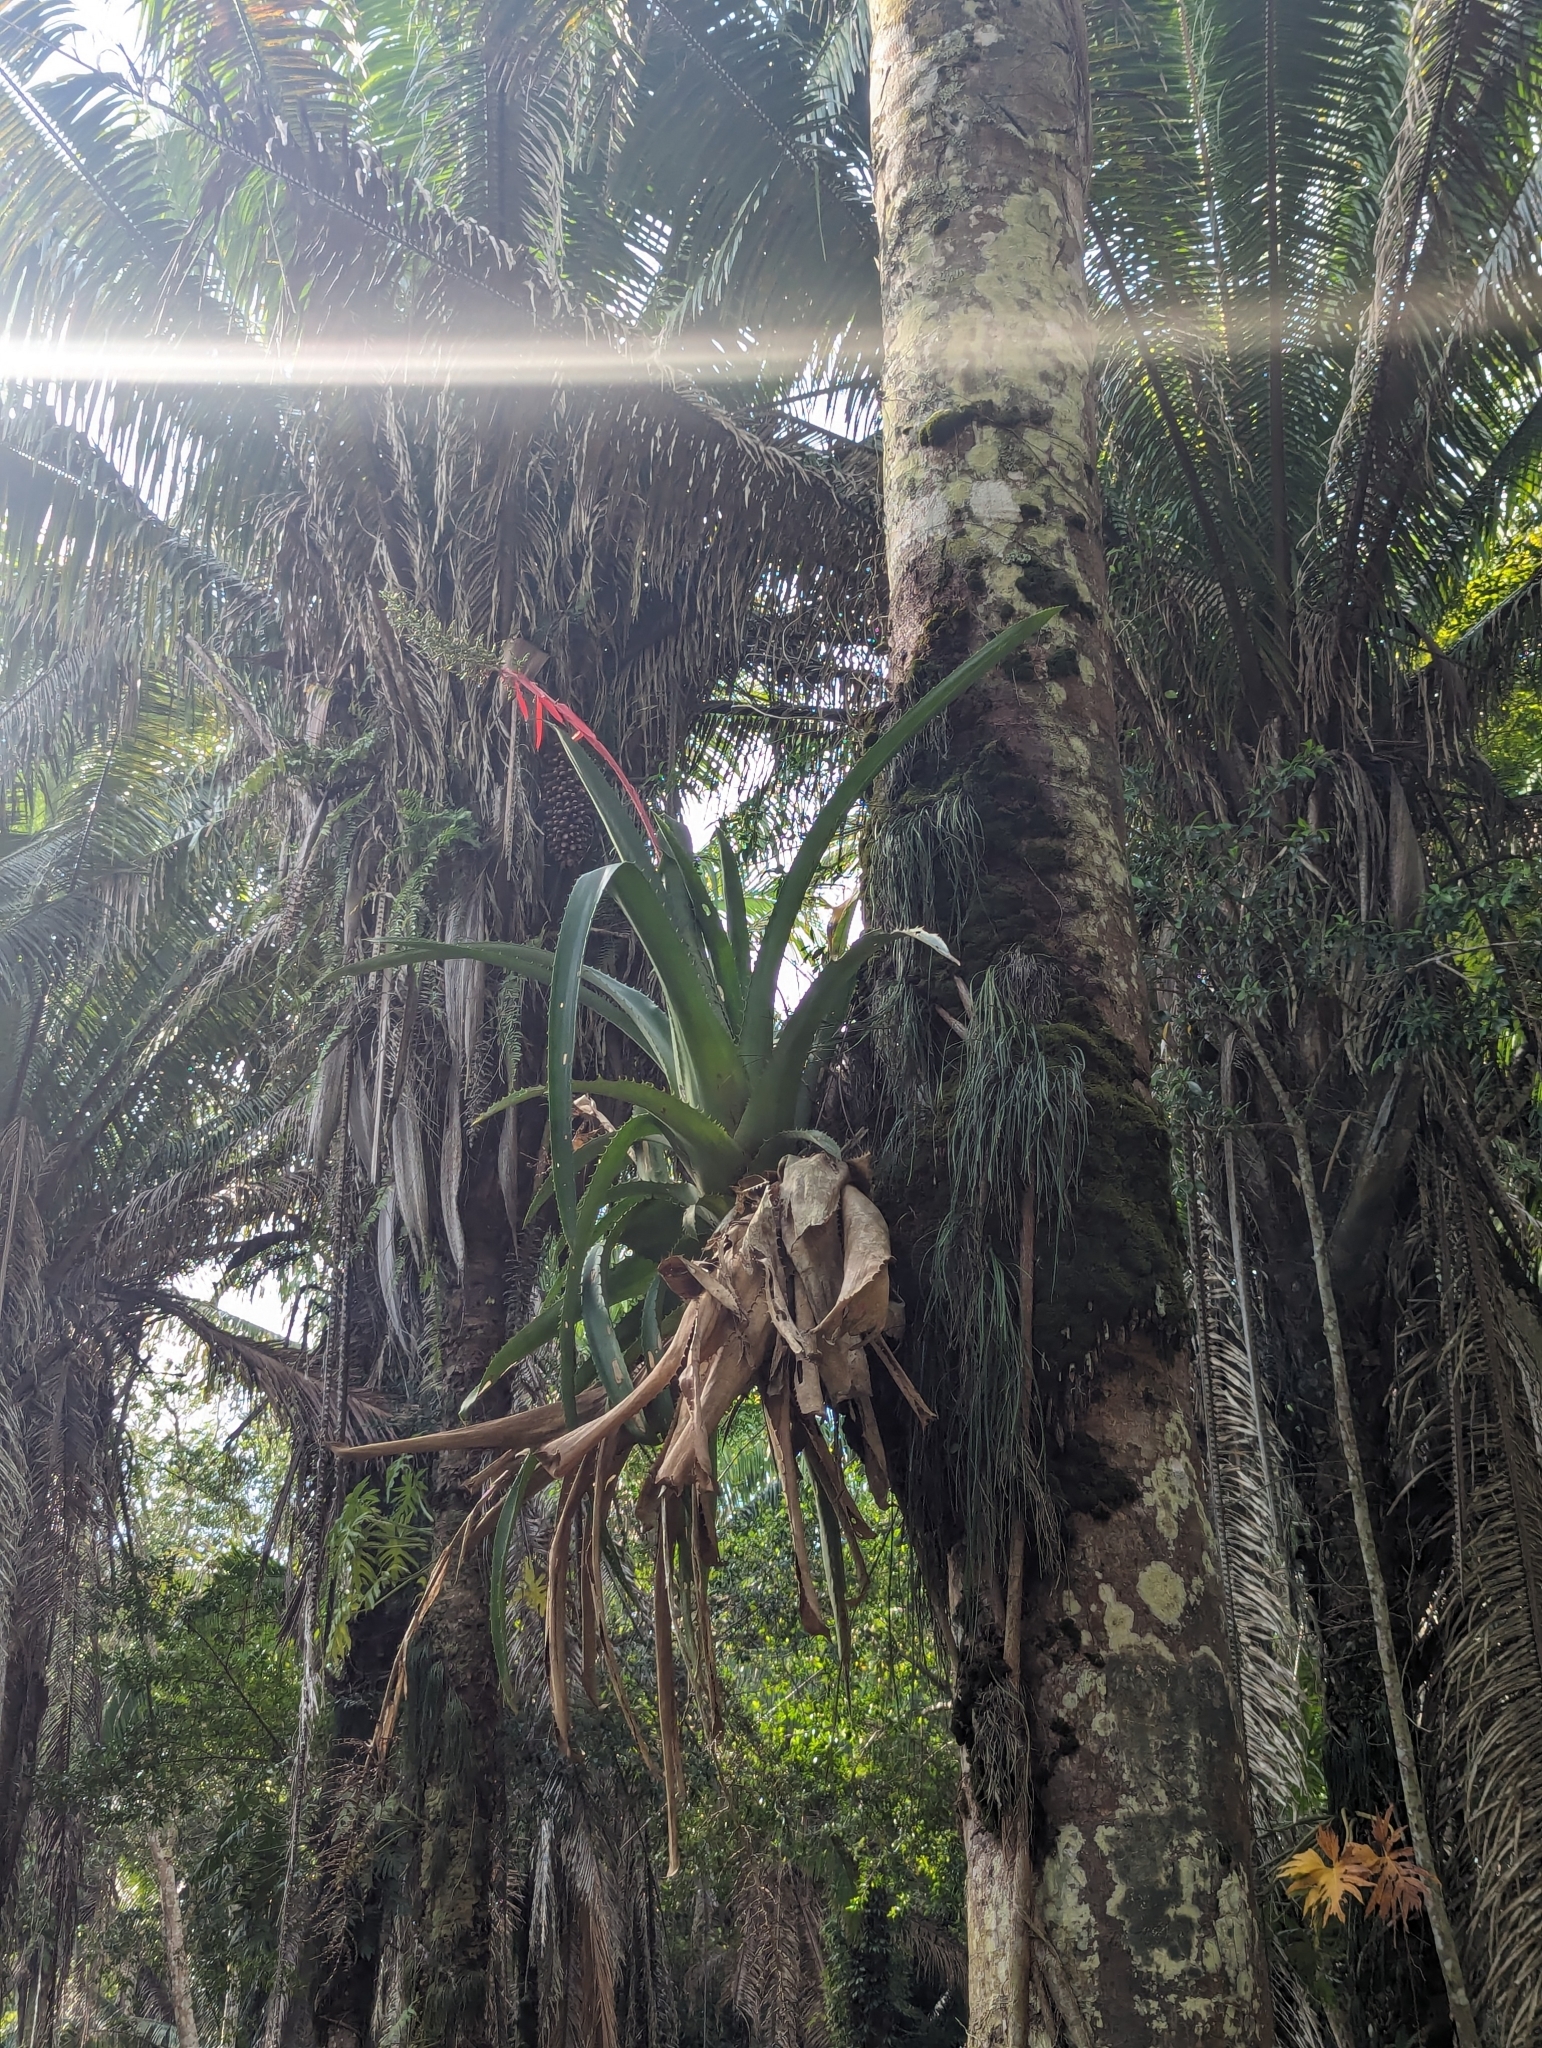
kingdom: Plantae
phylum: Tracheophyta
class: Liliopsida
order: Poales
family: Bromeliaceae
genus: Aechmea
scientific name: Aechmea bracteata
